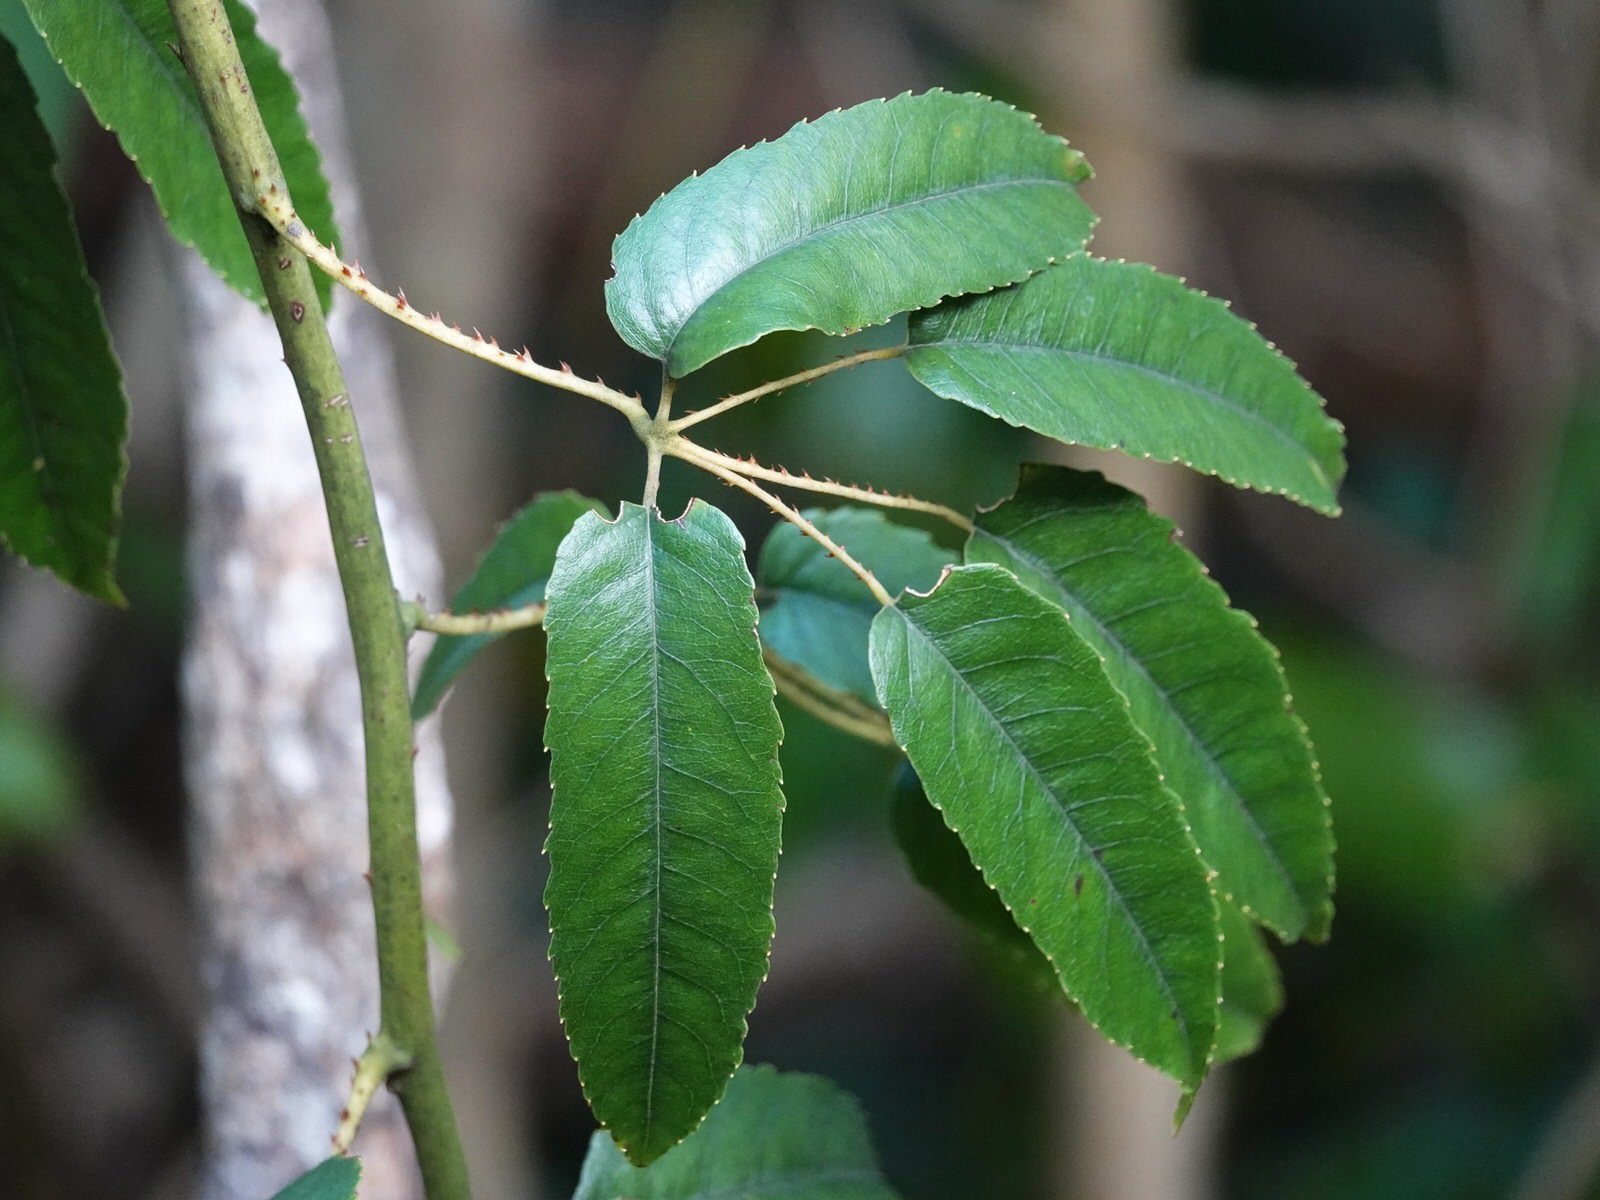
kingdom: Plantae
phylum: Tracheophyta
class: Magnoliopsida
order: Rosales
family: Rosaceae
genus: Rubus
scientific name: Rubus cissoides
